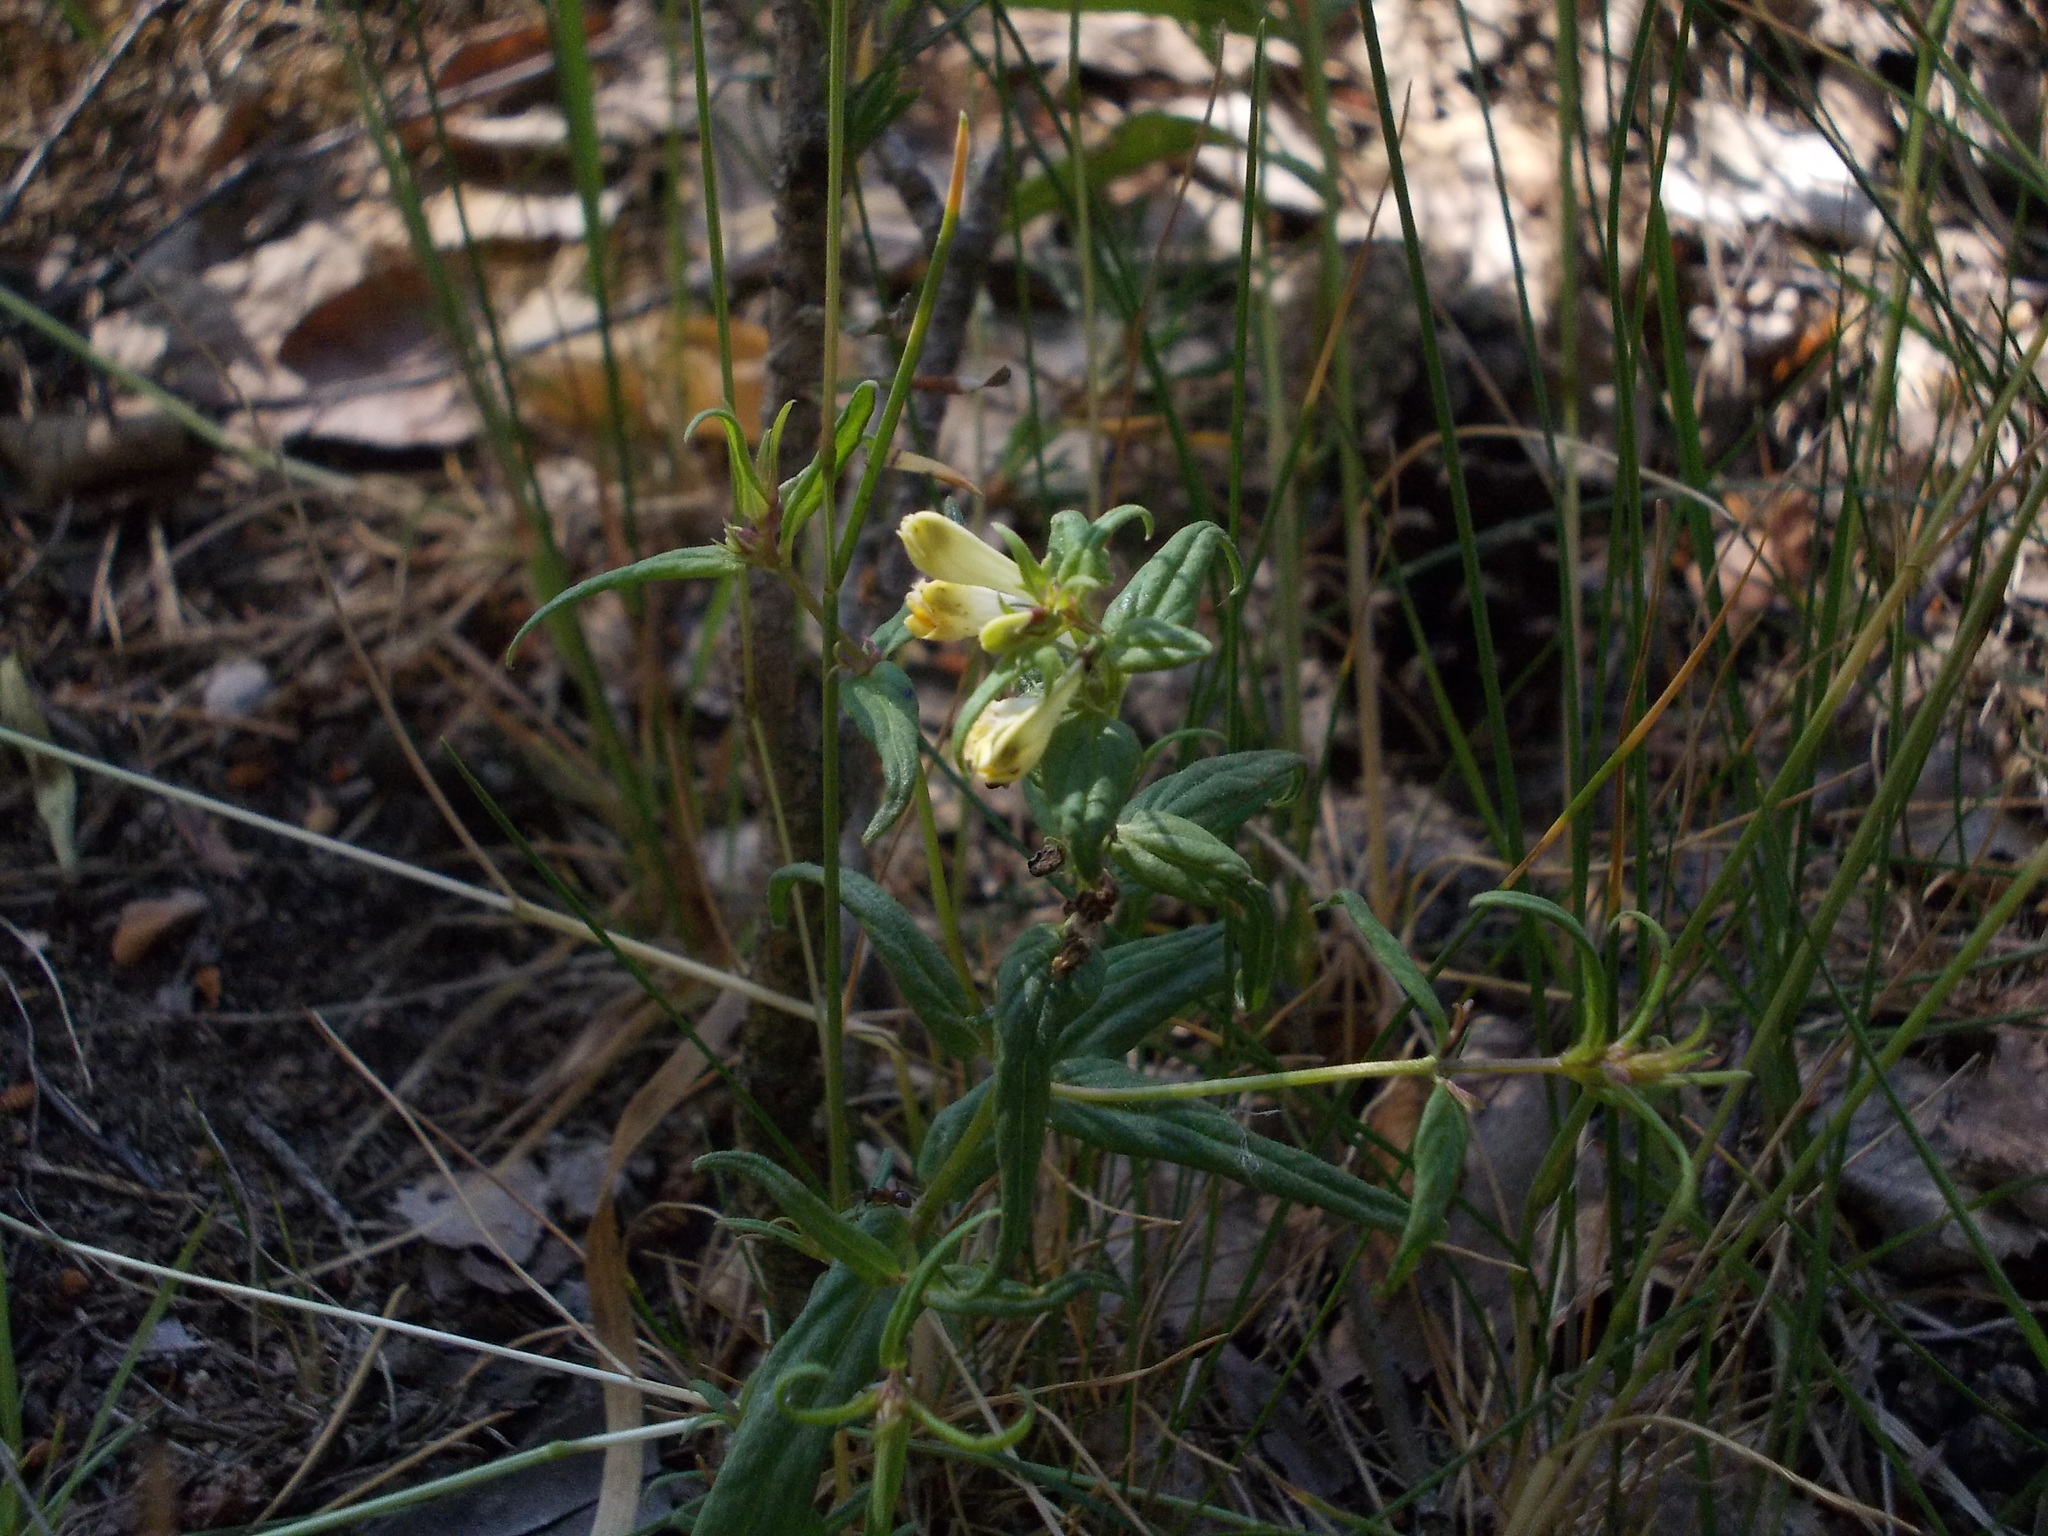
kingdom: Plantae
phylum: Tracheophyta
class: Magnoliopsida
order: Lamiales
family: Orobanchaceae
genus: Melampyrum
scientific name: Melampyrum pratense
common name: Common cow-wheat
